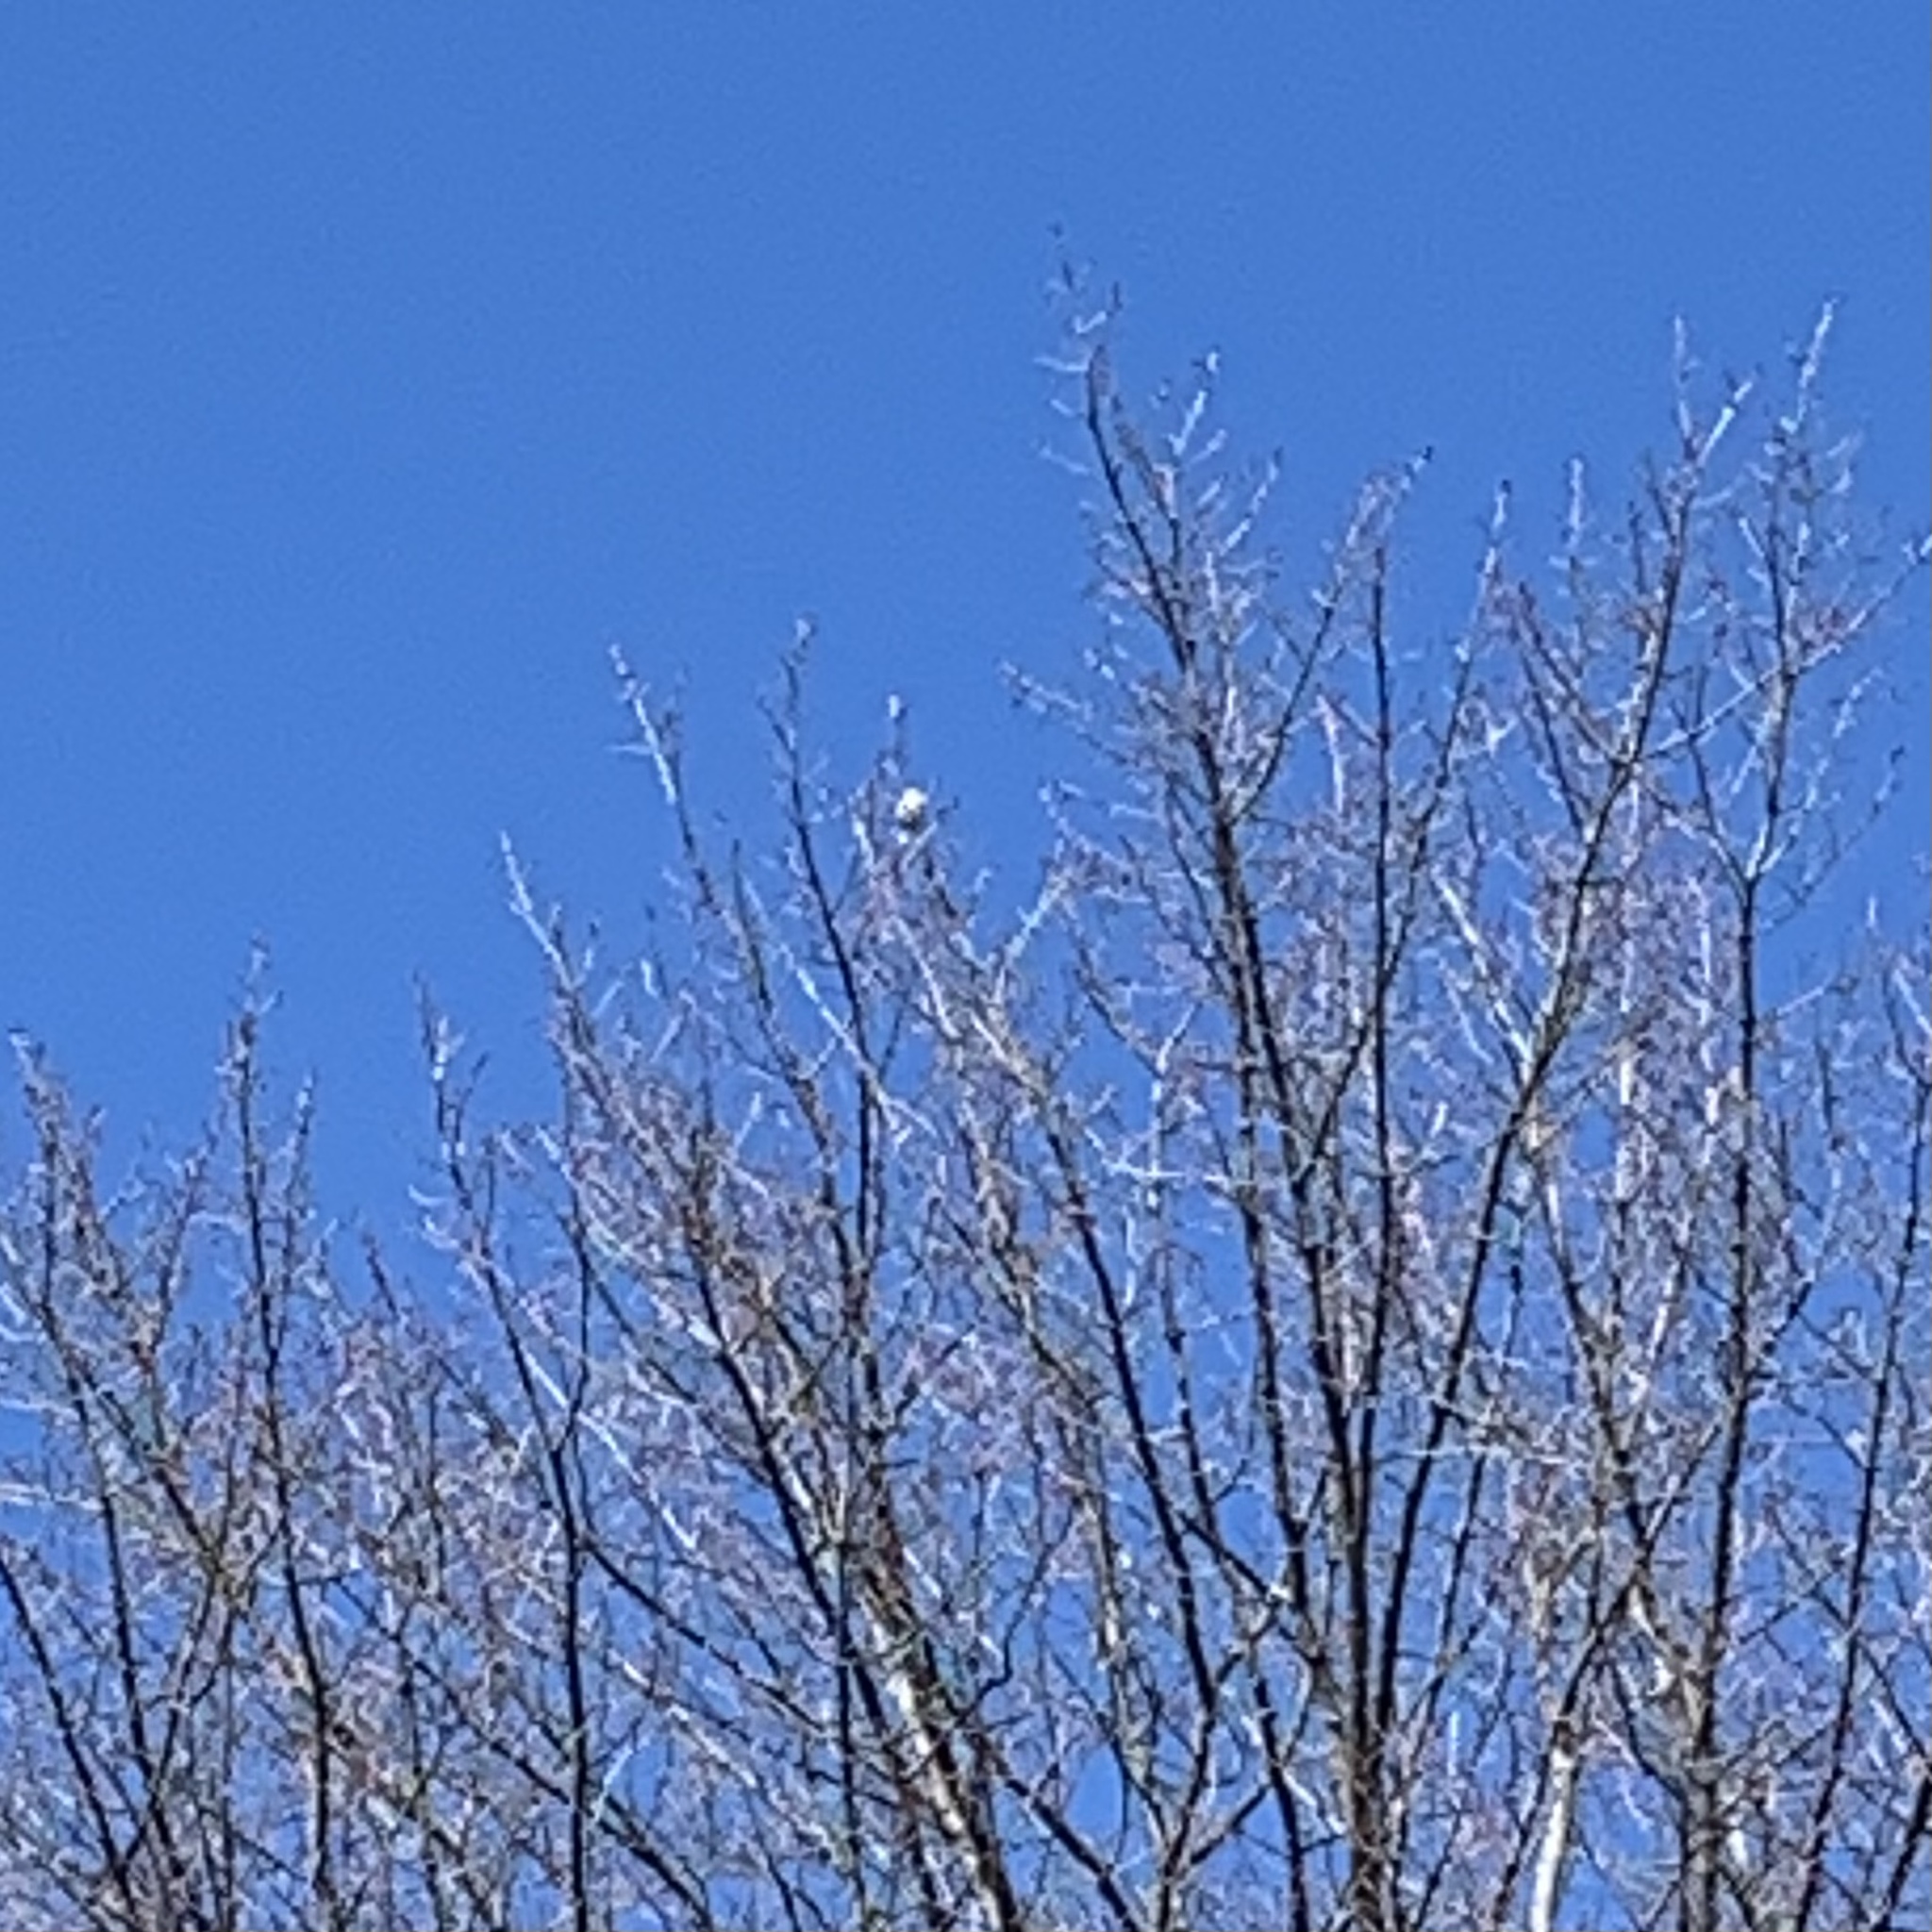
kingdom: Animalia
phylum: Chordata
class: Aves
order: Passeriformes
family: Paridae
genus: Baeolophus
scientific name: Baeolophus bicolor
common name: Tufted titmouse
